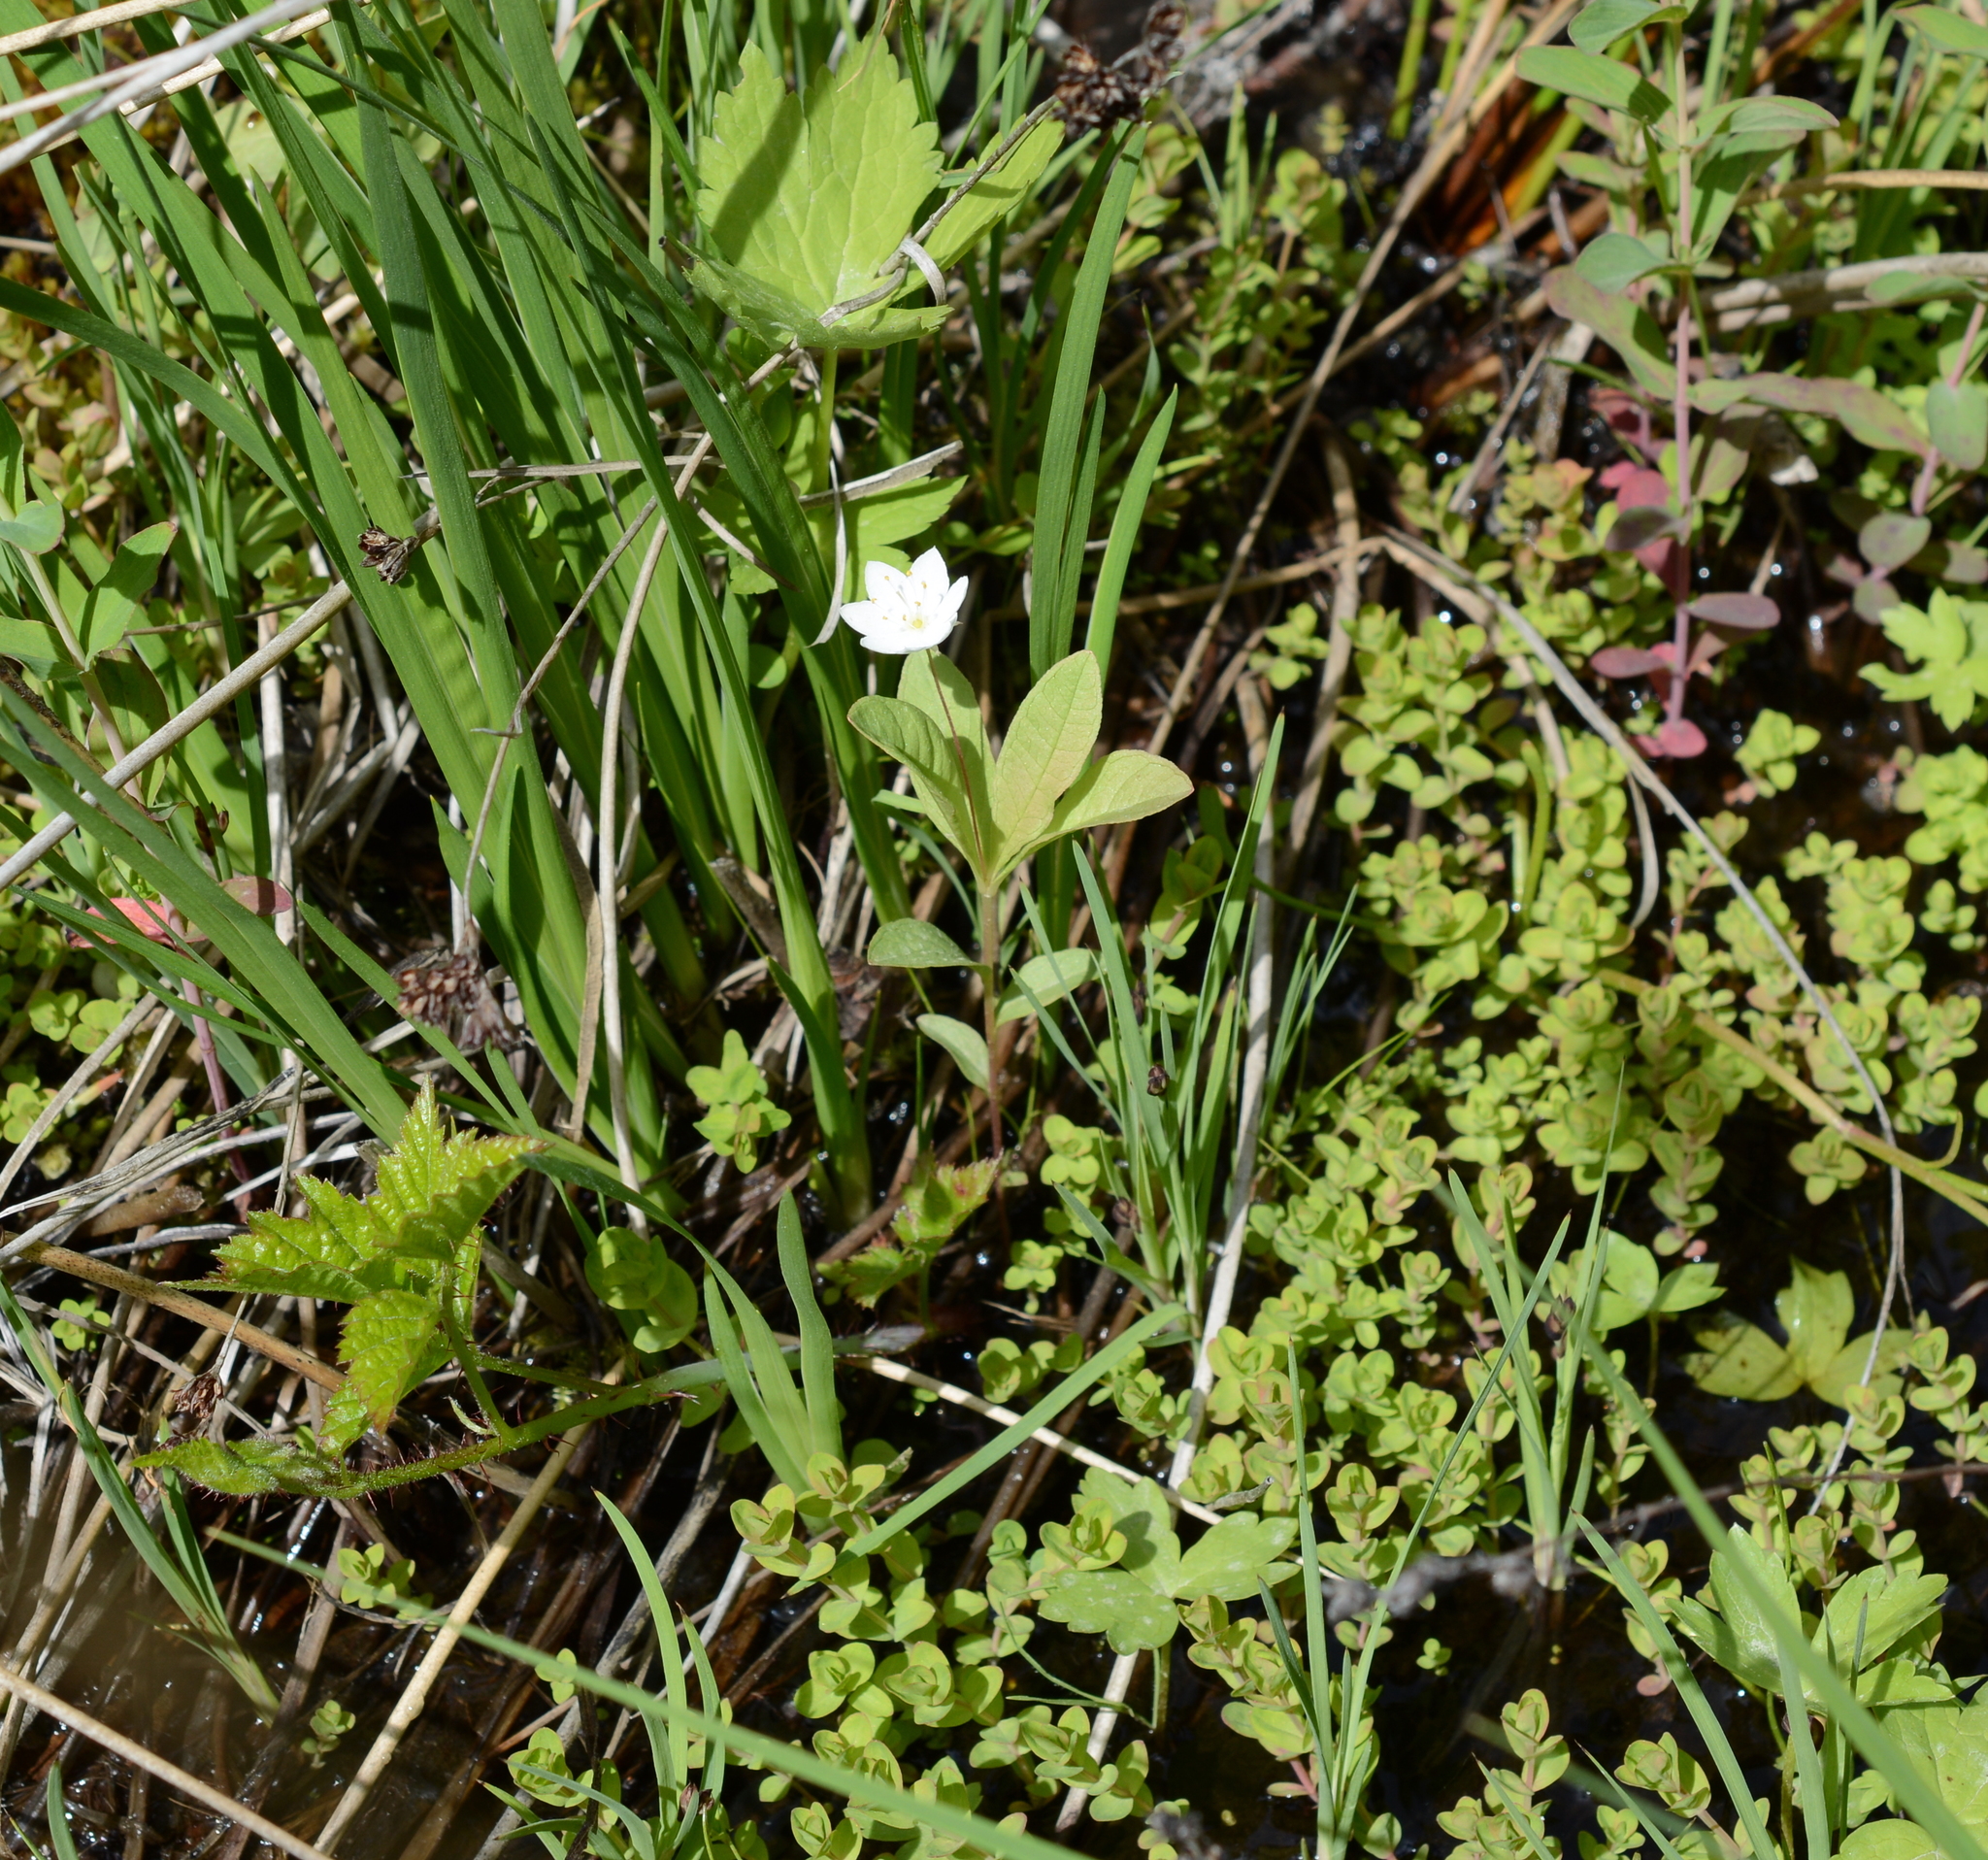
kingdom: Plantae
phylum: Tracheophyta
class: Magnoliopsida
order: Ericales
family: Primulaceae
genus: Lysimachia
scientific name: Lysimachia europaea
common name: Arctic starflower
